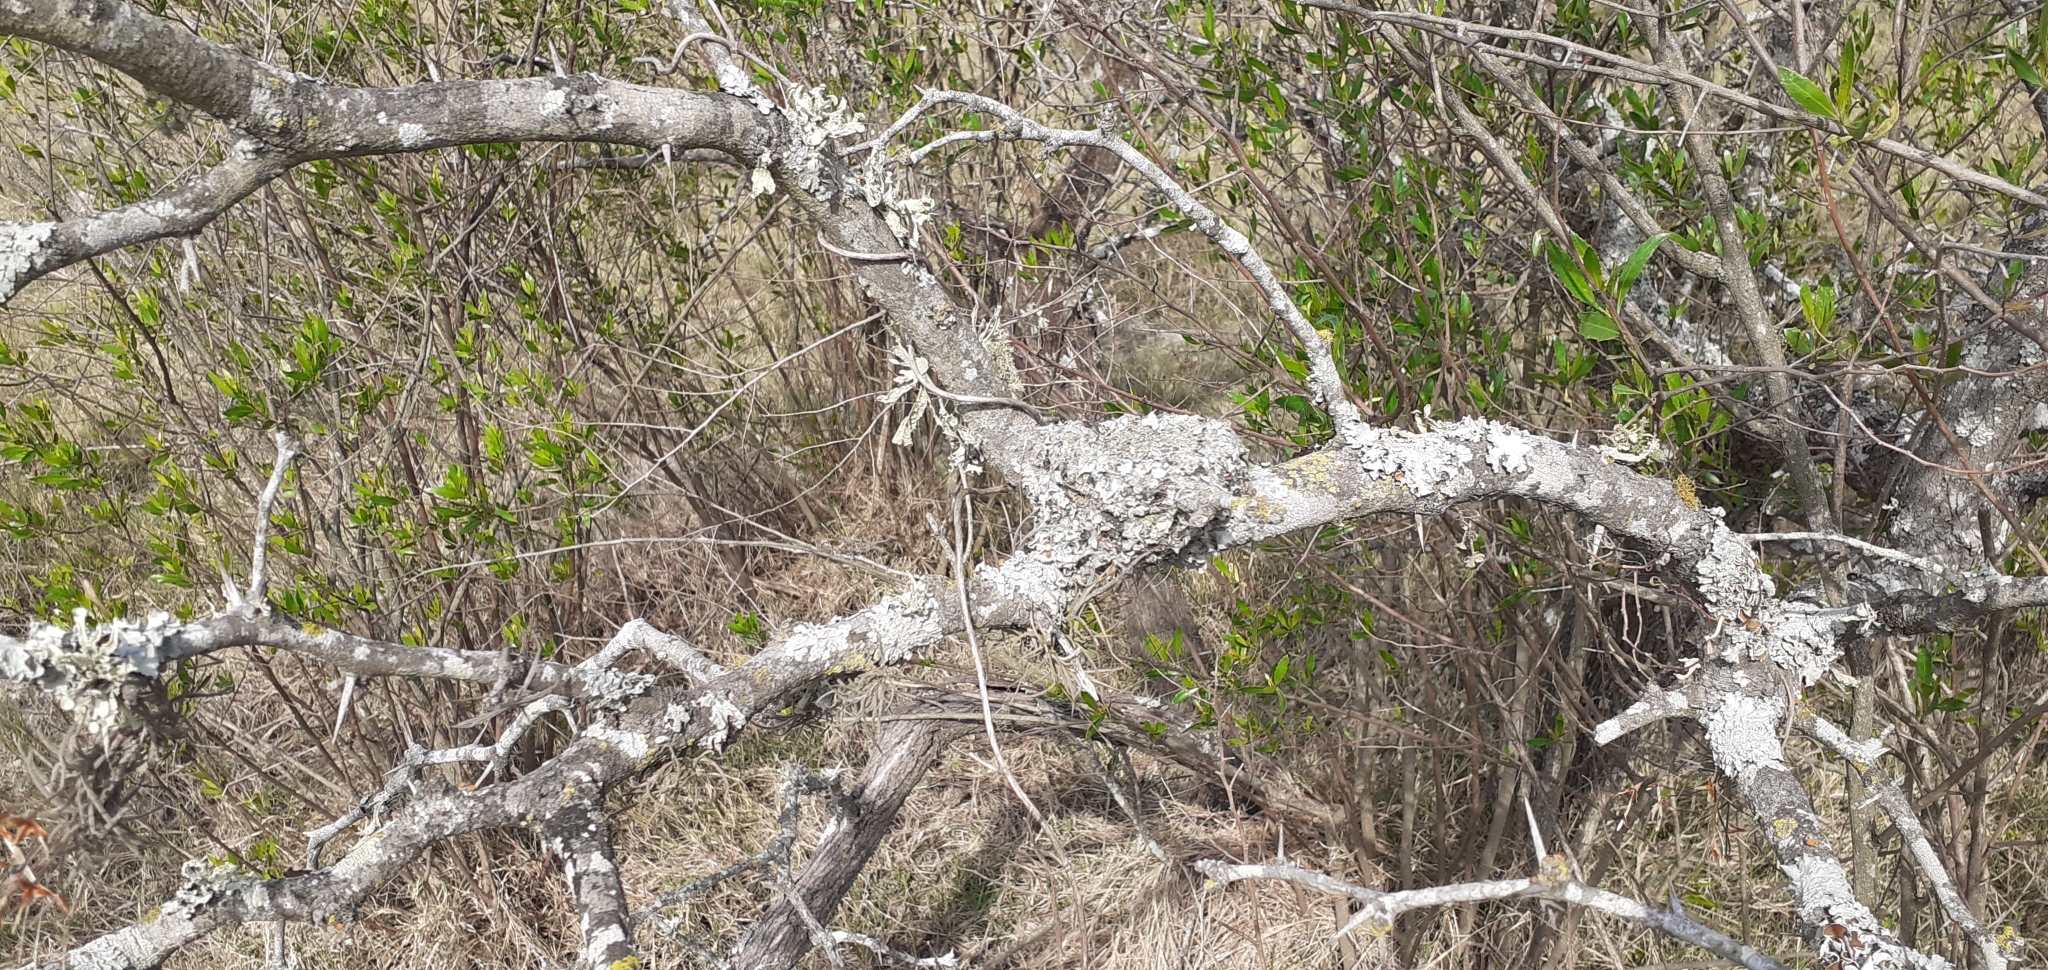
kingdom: Animalia
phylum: Chordata
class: Aves
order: Passeriformes
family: Tyrannidae
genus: Sublegatus
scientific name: Sublegatus modestus
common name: Southern scrub flycatcher
